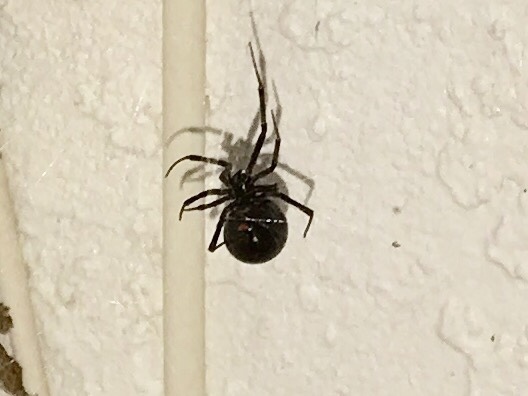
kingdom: Animalia
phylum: Arthropoda
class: Arachnida
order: Araneae
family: Theridiidae
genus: Latrodectus
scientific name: Latrodectus hesperus
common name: Western black widow
